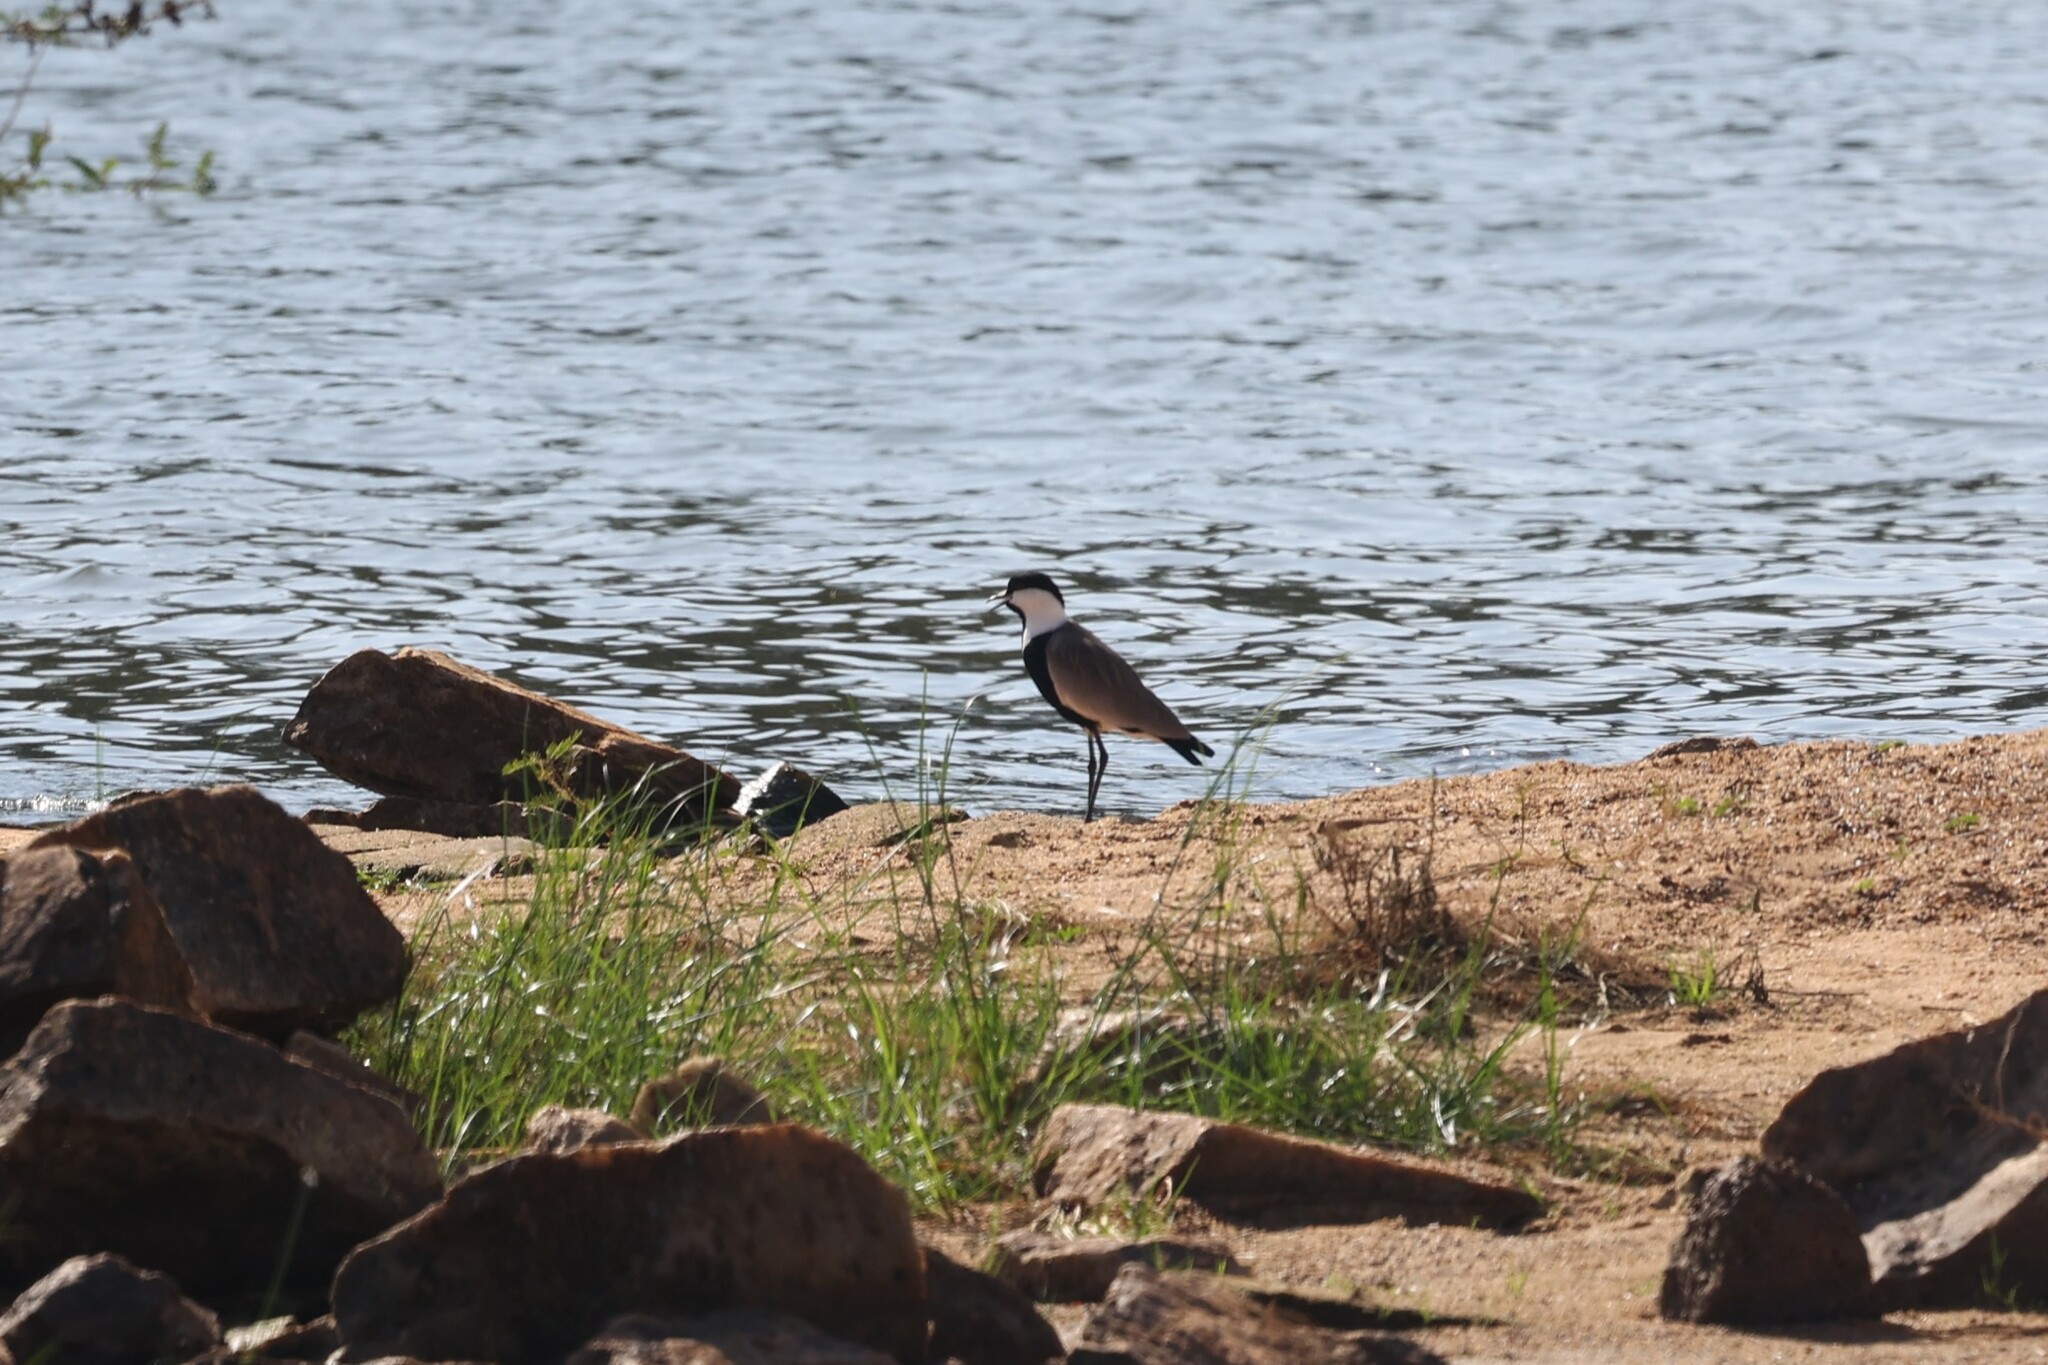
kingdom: Animalia
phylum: Chordata
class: Aves
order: Charadriiformes
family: Charadriidae
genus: Vanellus
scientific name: Vanellus spinosus
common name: Spur-winged lapwing
